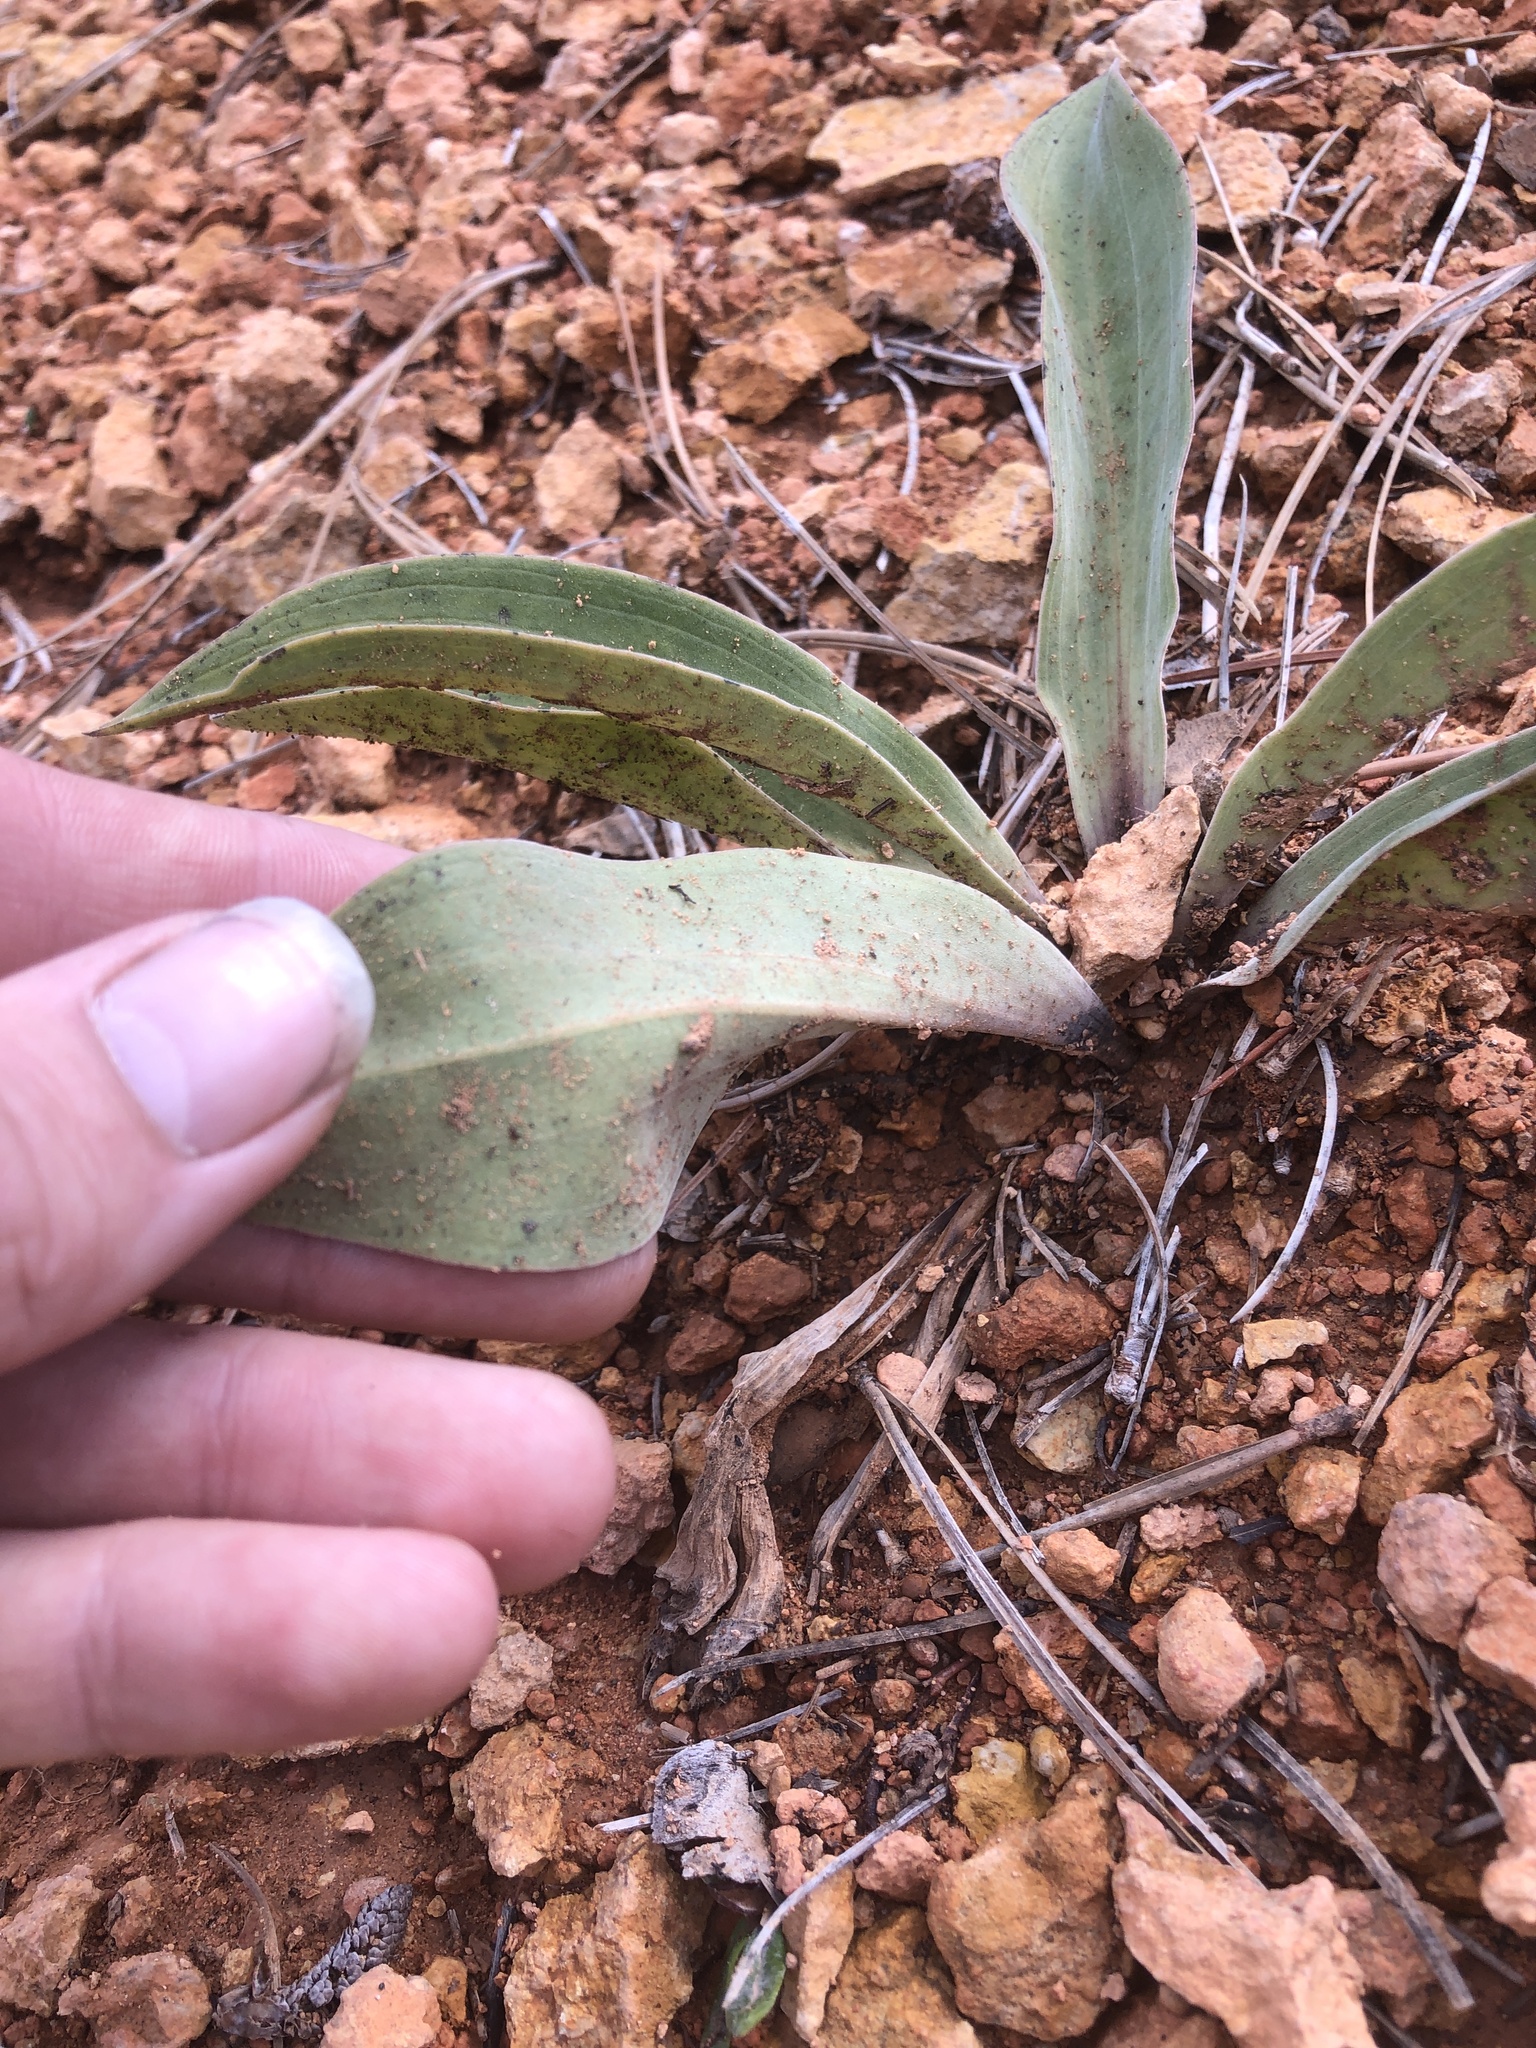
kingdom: Plantae
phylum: Tracheophyta
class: Magnoliopsida
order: Gentianales
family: Gentianaceae
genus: Frasera
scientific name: Frasera speciosa
